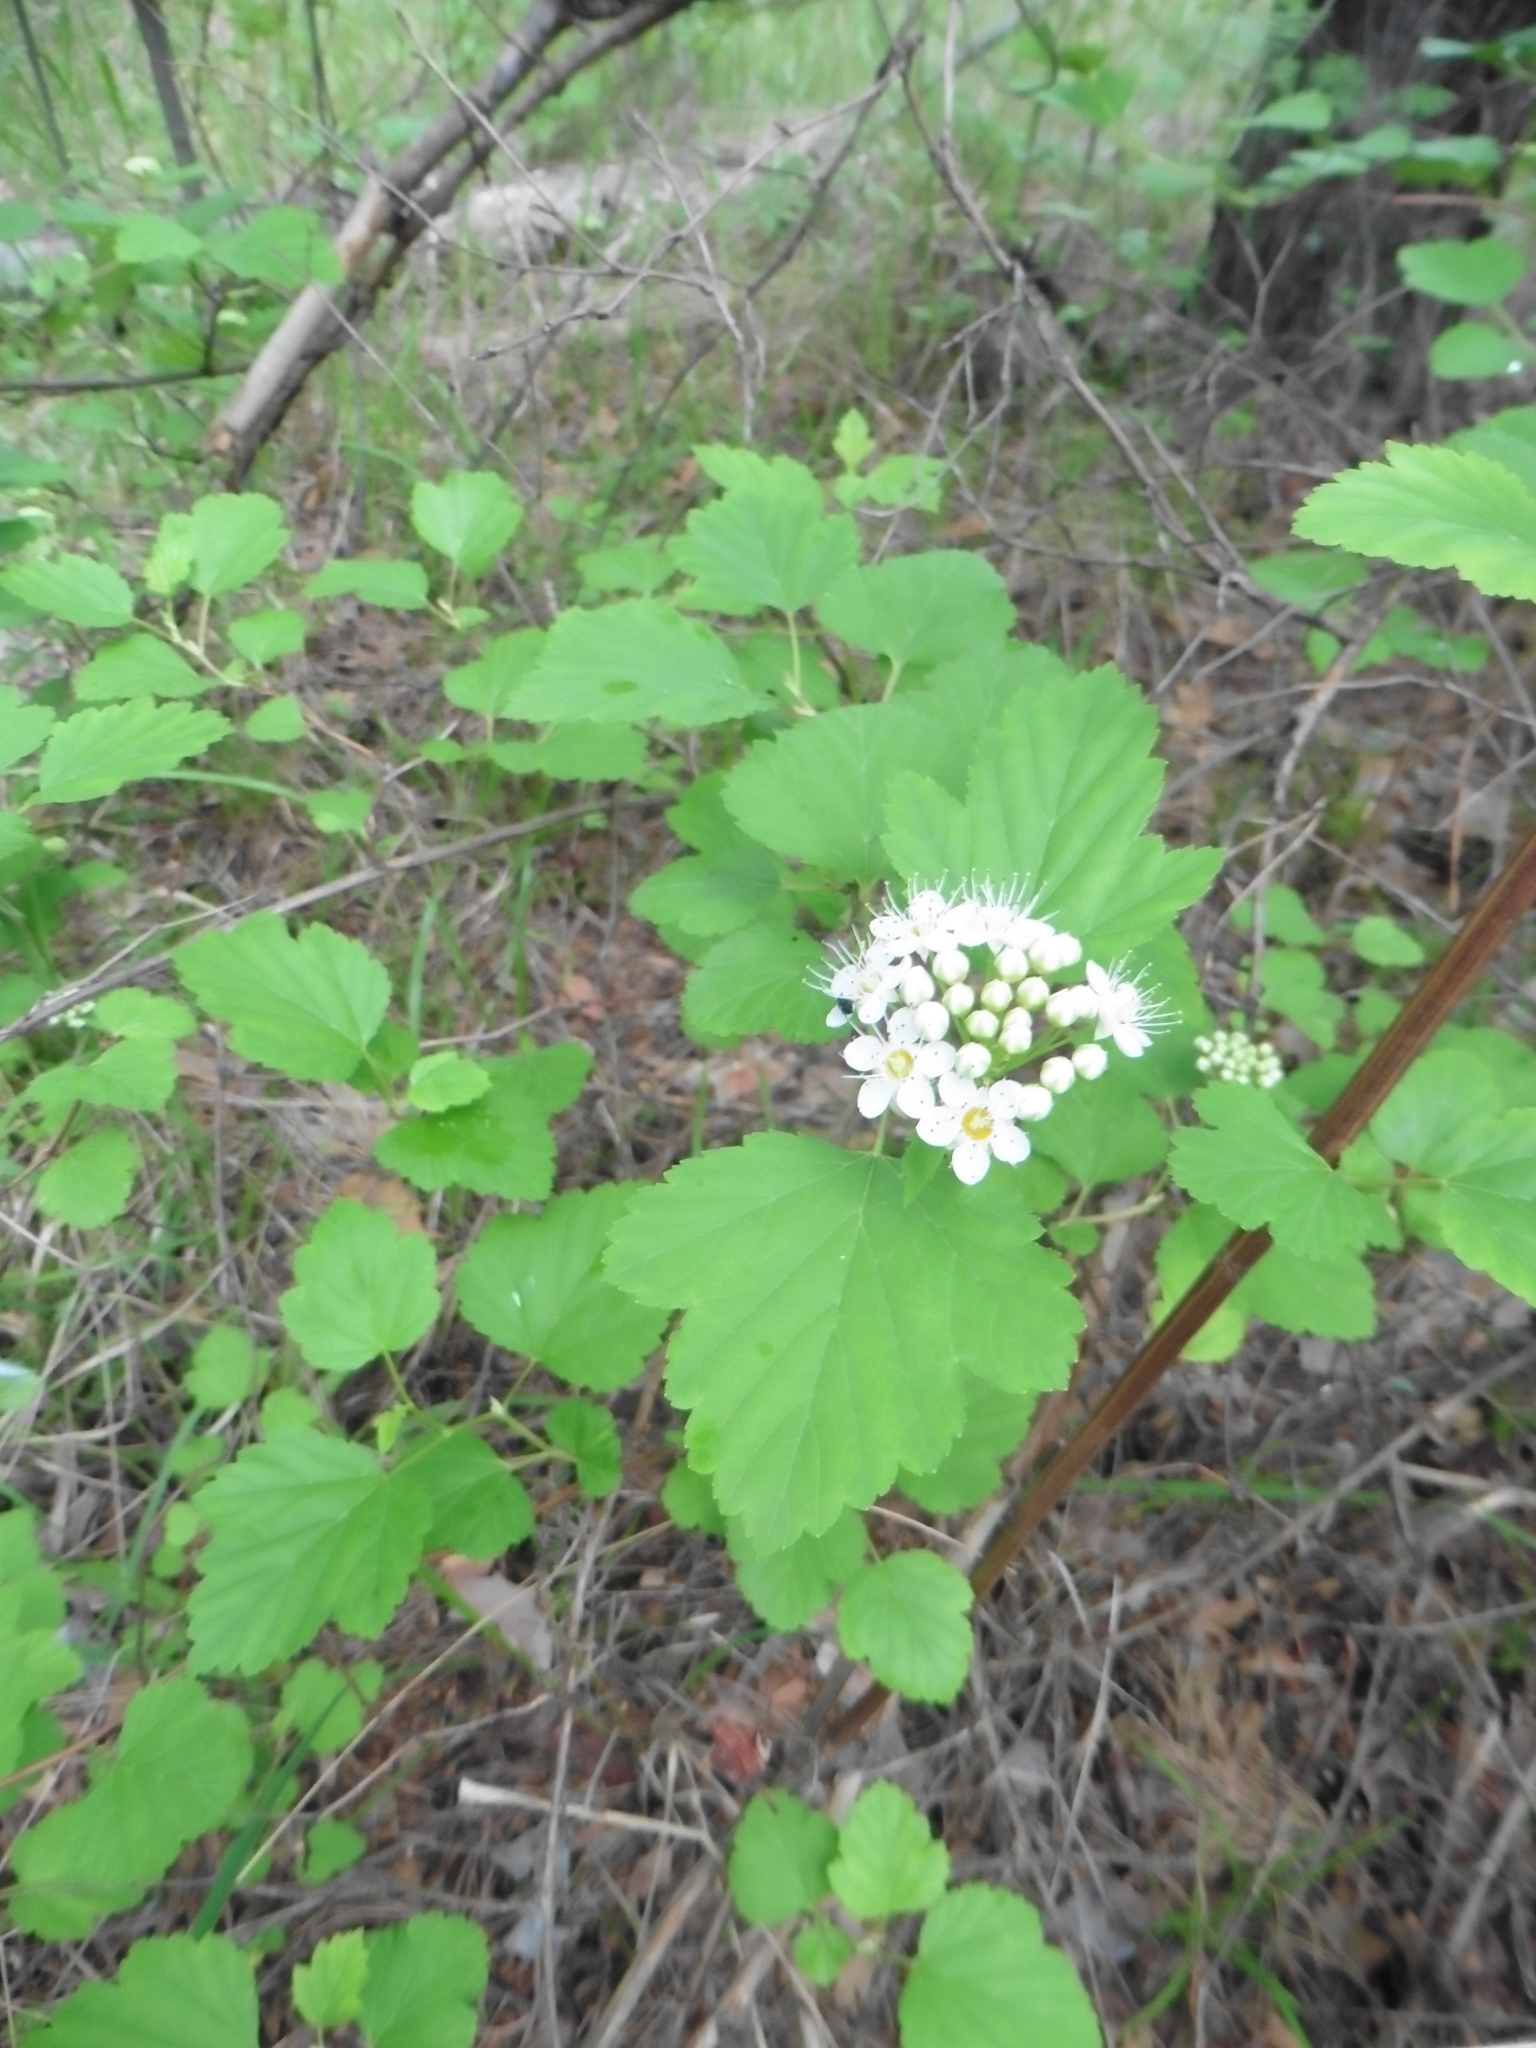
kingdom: Plantae
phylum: Tracheophyta
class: Magnoliopsida
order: Rosales
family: Rosaceae
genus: Physocarpus
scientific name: Physocarpus opulifolius
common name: Ninebark
